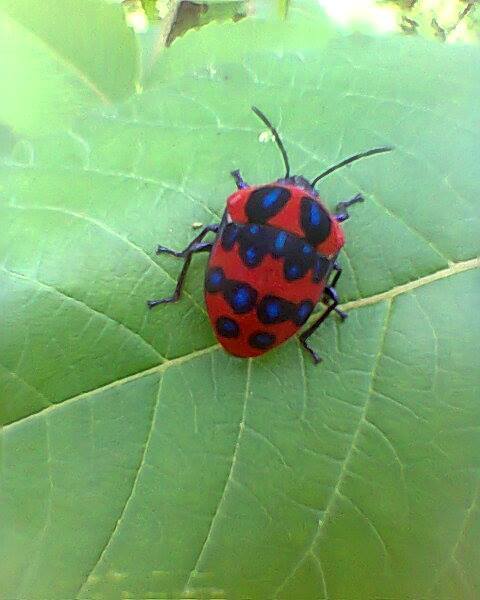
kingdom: Animalia
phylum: Arthropoda
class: Insecta
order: Hemiptera
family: Scutelleridae
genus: Poecilocoris
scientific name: Poecilocoris druraei
